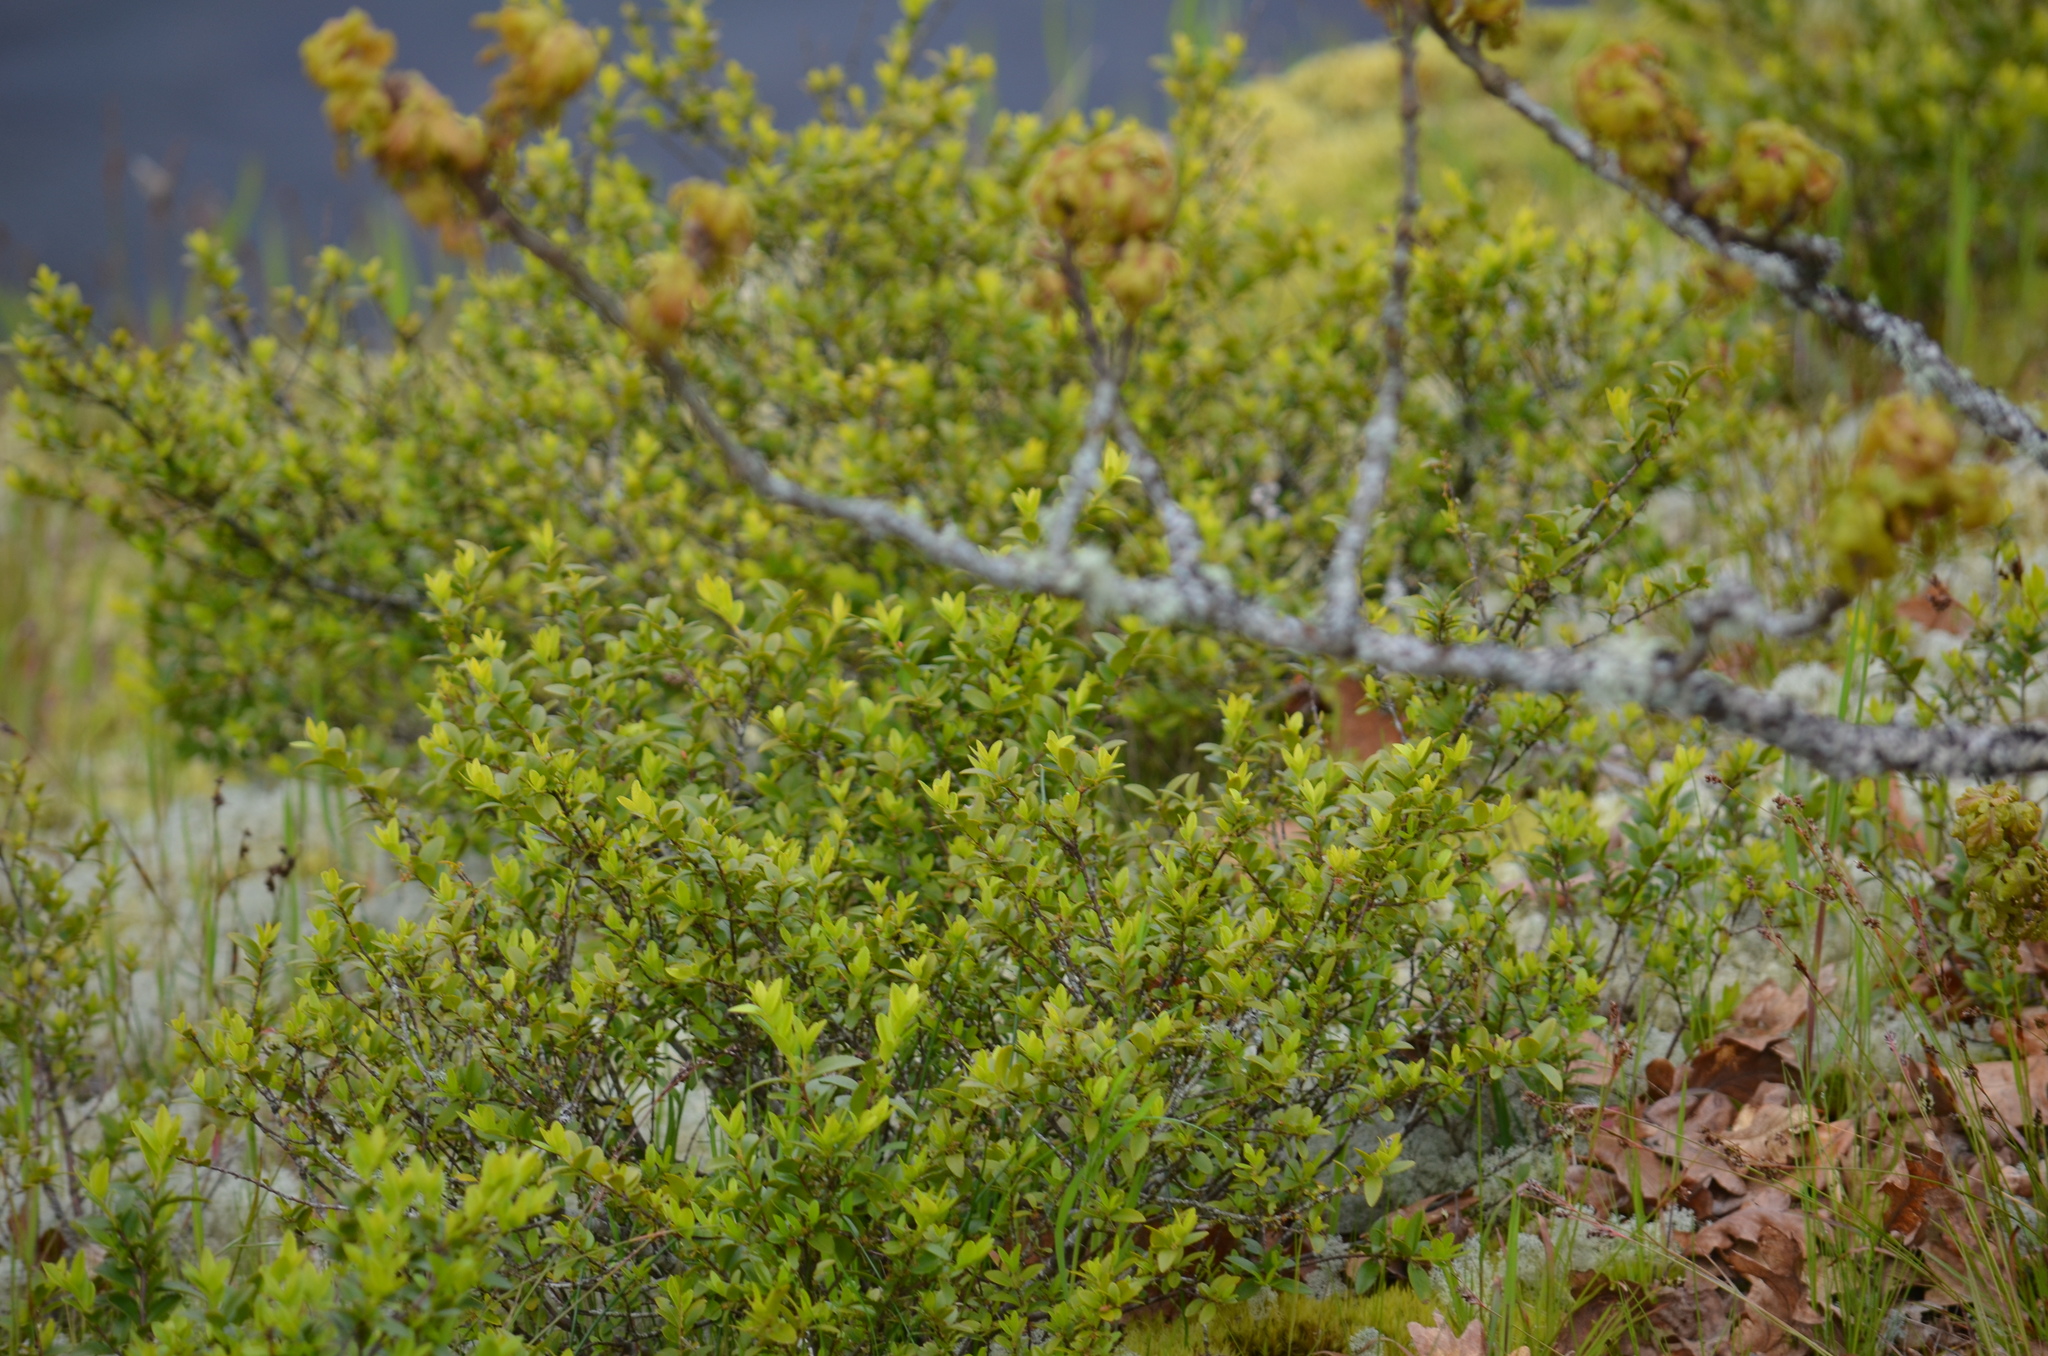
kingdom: Plantae
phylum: Tracheophyta
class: Magnoliopsida
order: Celastrales
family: Celastraceae
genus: Paxistima
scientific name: Paxistima myrsinites
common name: Mountain-lover
